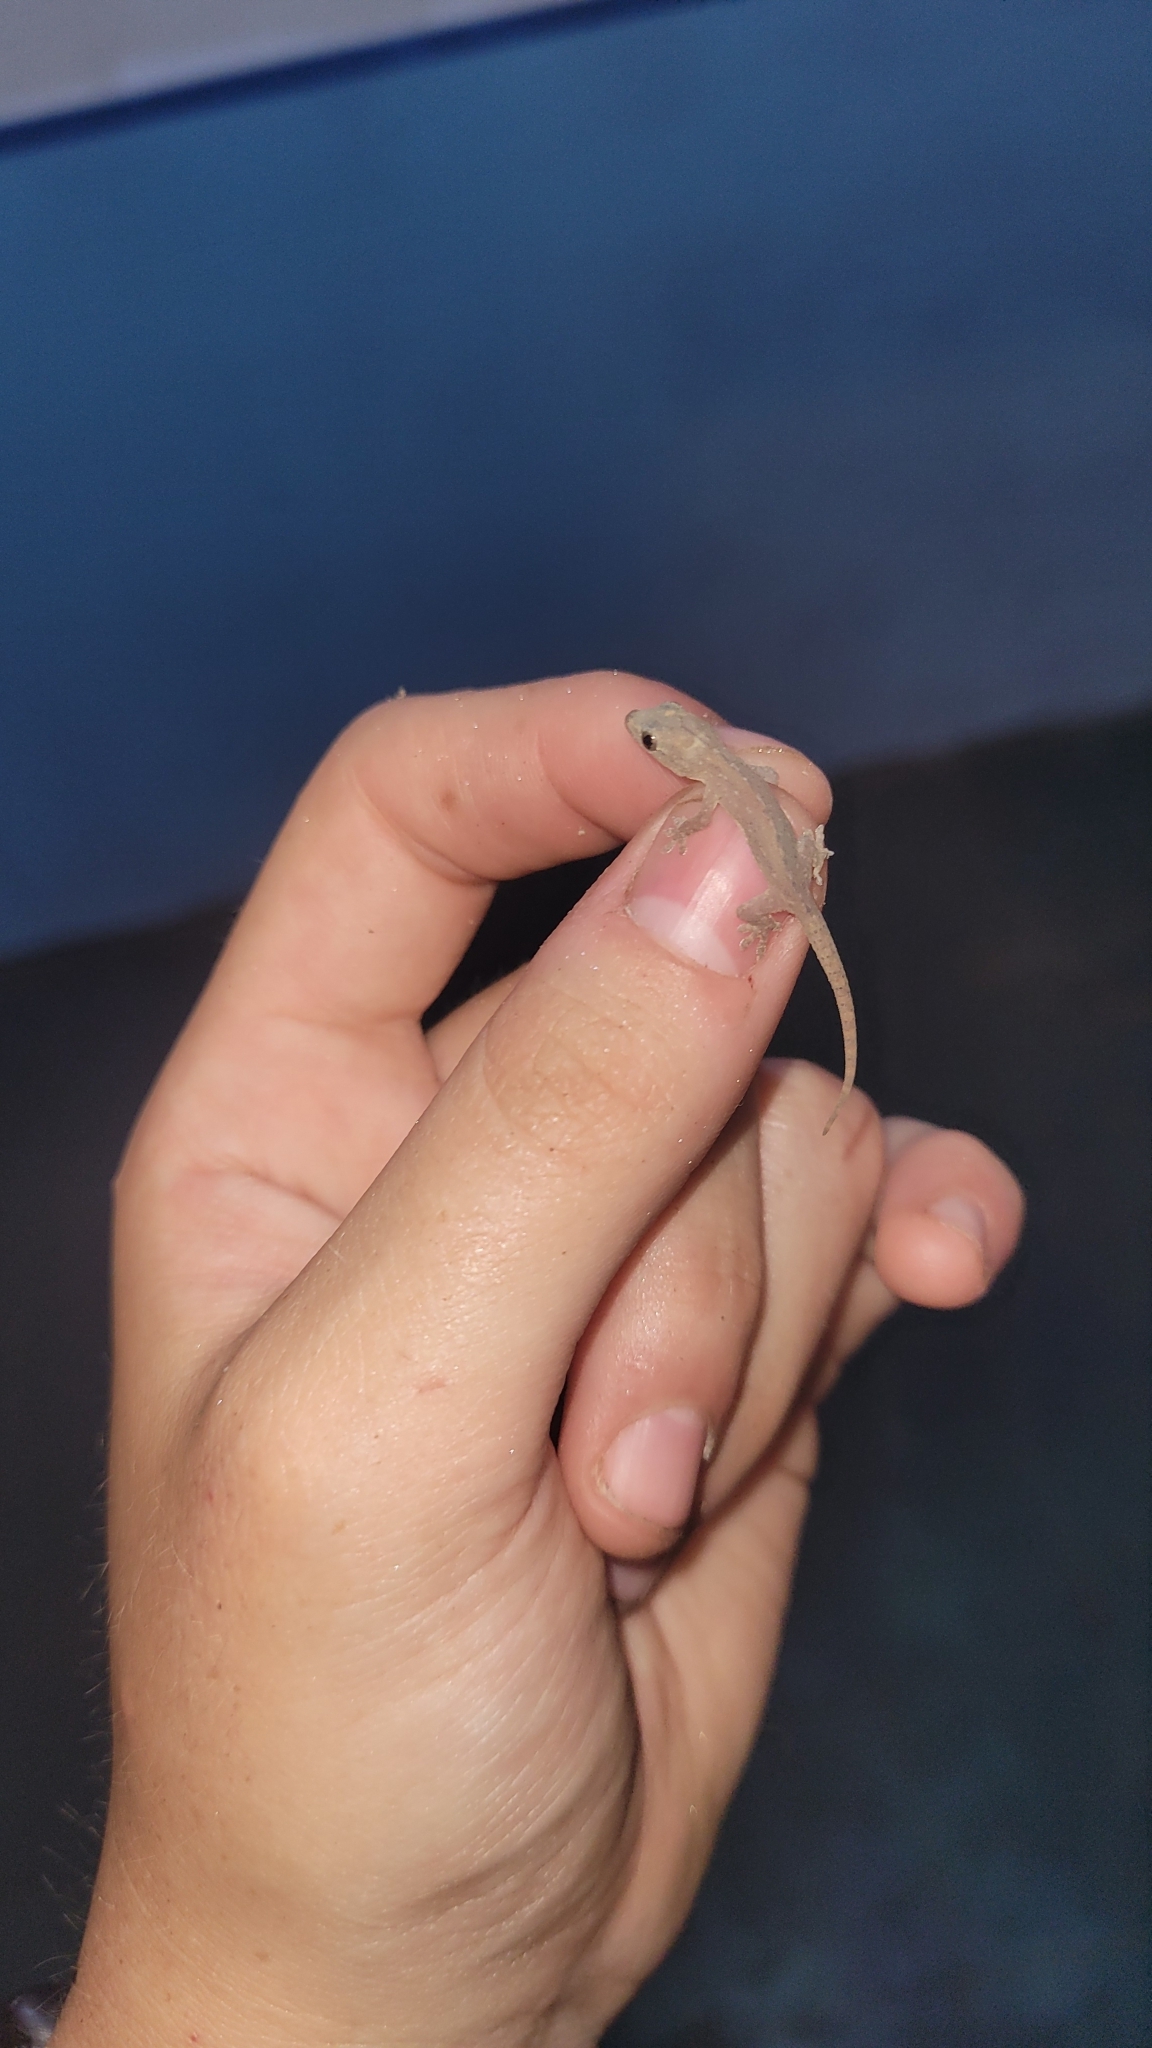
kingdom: Animalia
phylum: Chordata
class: Squamata
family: Gekkonidae
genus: Hemidactylus
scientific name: Hemidactylus frenatus
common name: Common house gecko
